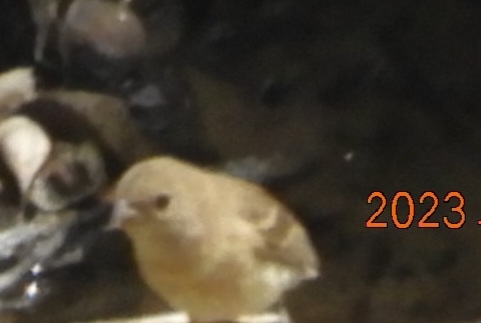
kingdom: Animalia
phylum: Chordata
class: Aves
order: Passeriformes
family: Cardinalidae
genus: Passerina
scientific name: Passerina amoena
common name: Lazuli bunting
